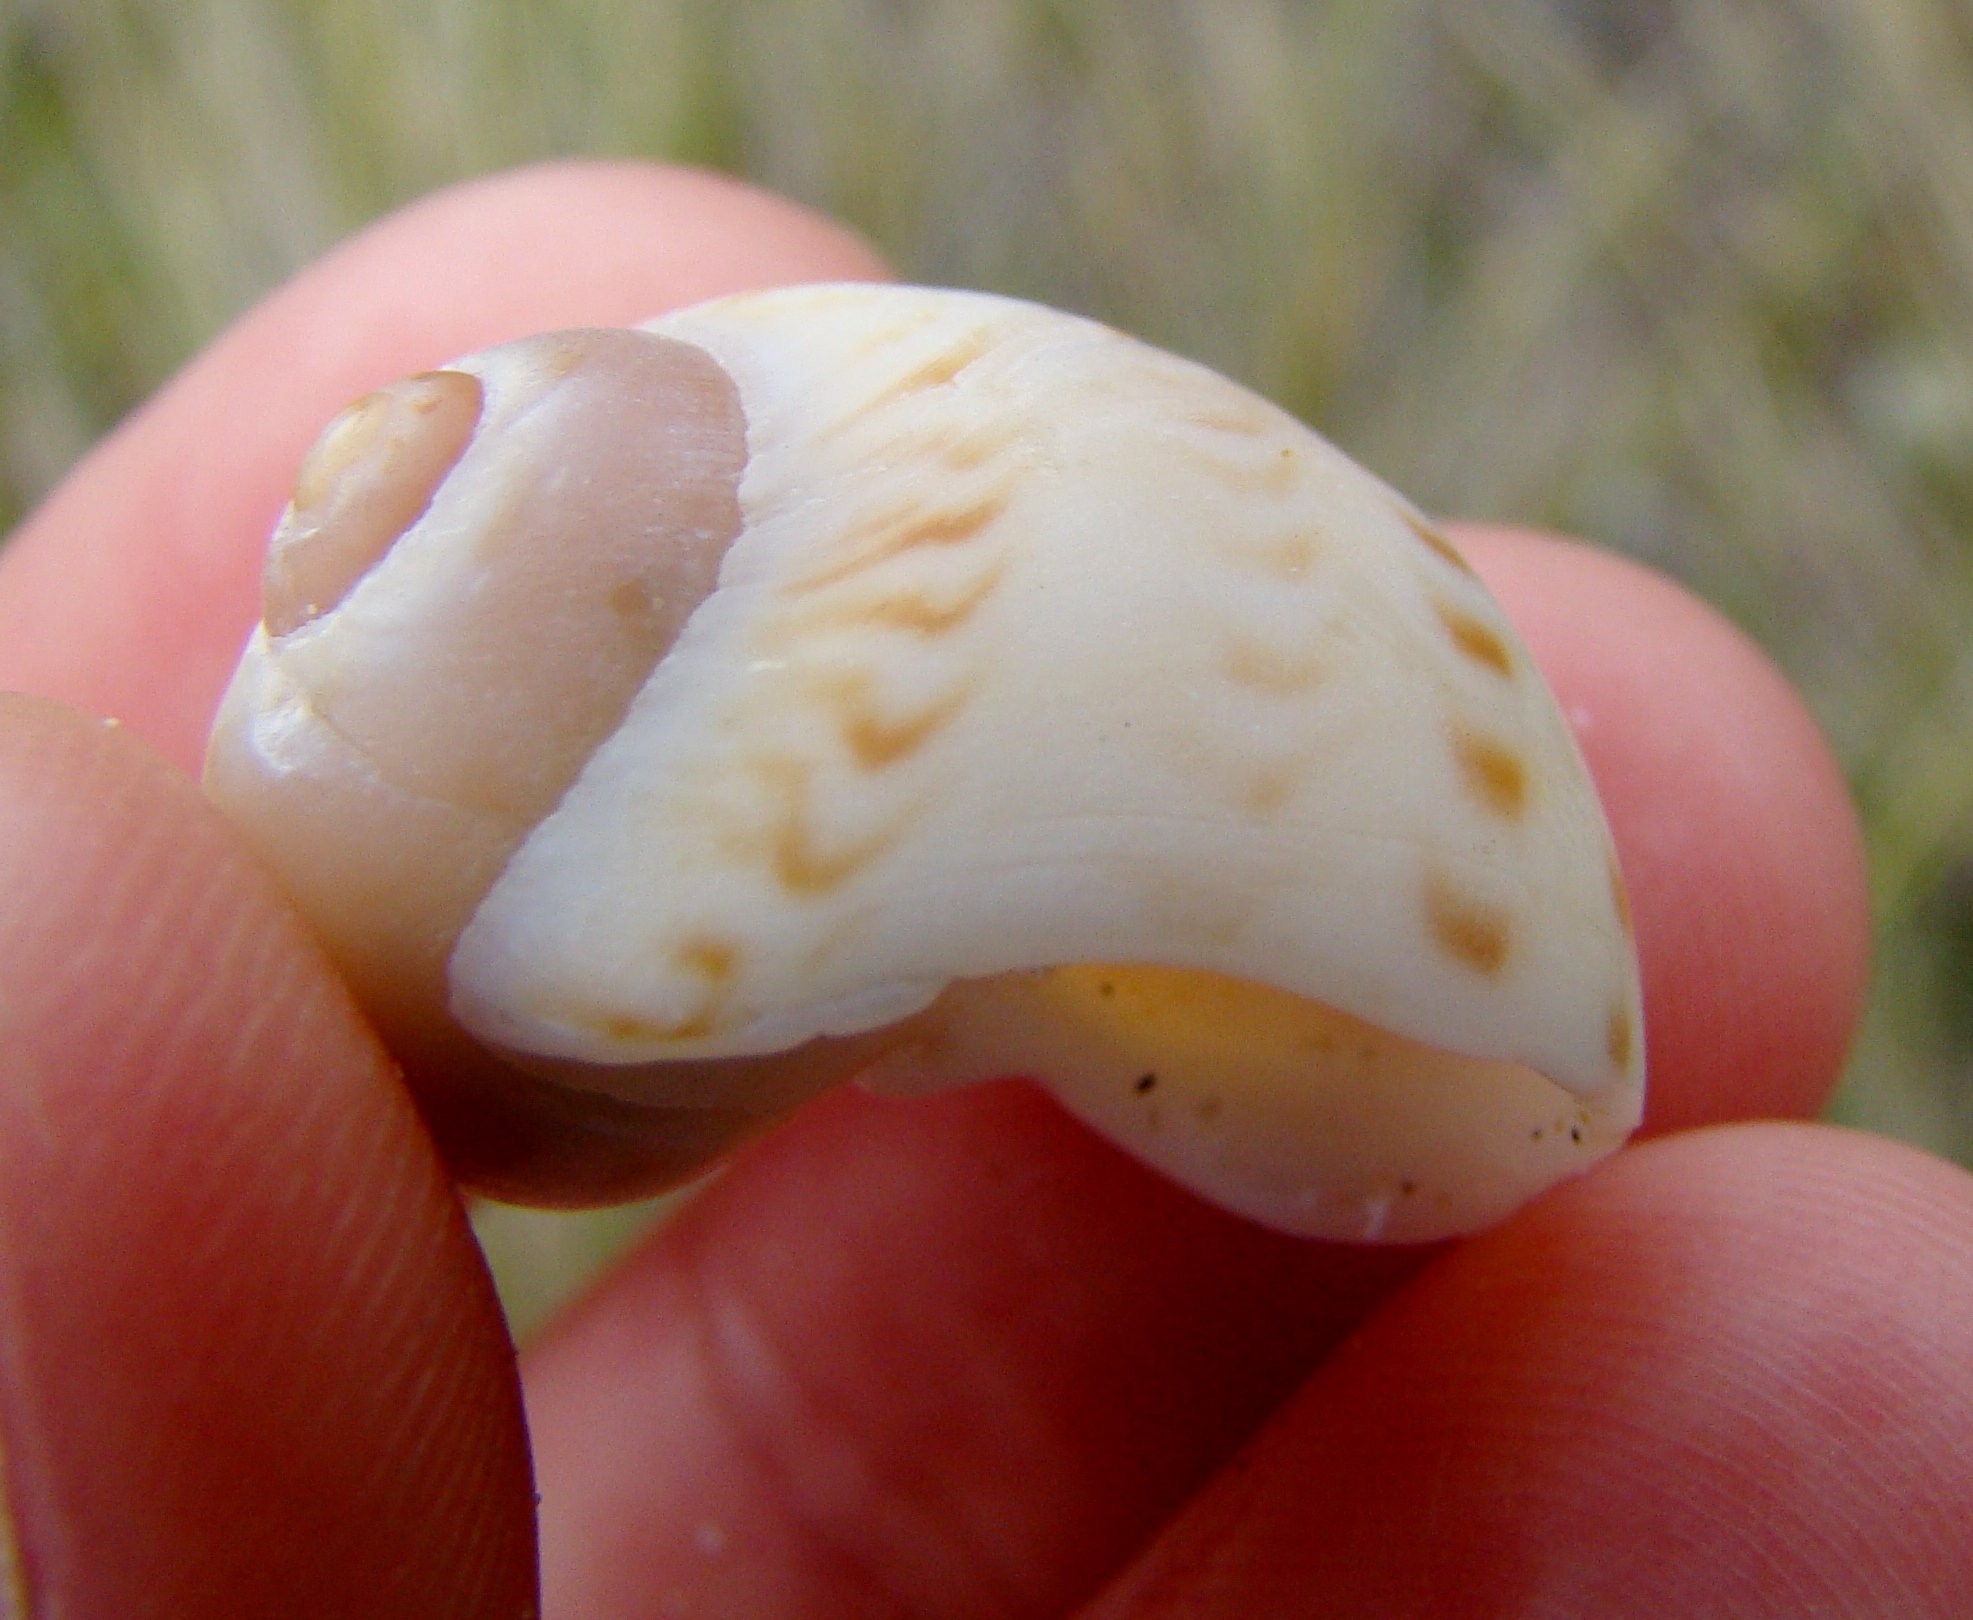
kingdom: Animalia
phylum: Mollusca
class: Gastropoda
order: Littorinimorpha
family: Naticidae
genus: Tanea
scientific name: Tanea zelandica
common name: New zealand moonsnail
